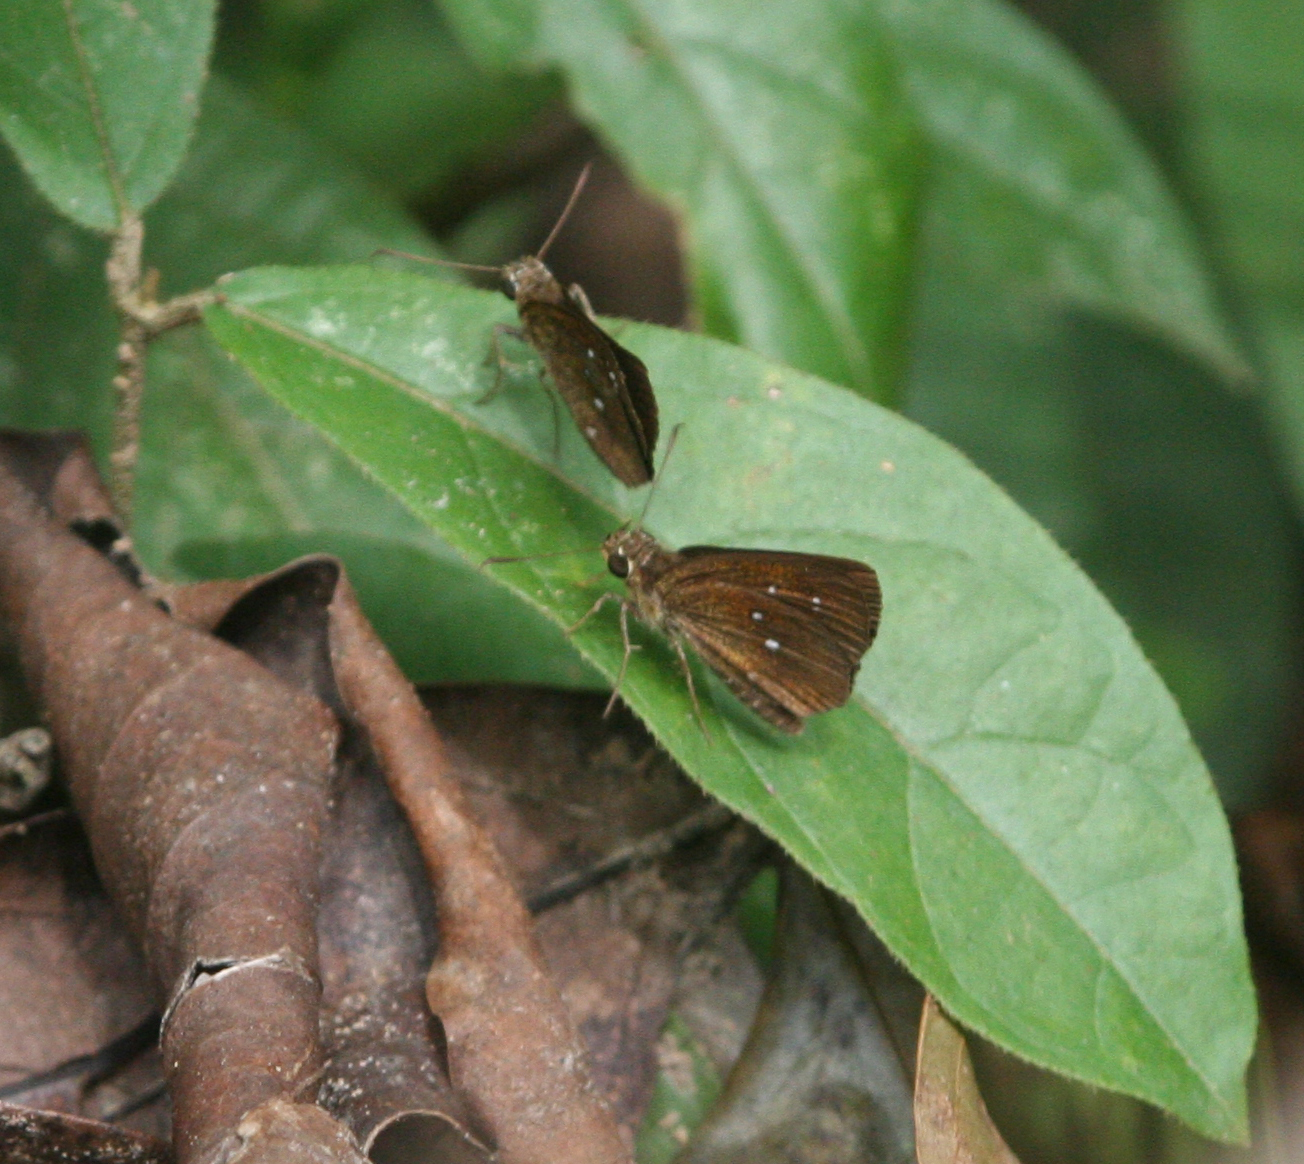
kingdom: Animalia
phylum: Arthropoda
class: Insecta
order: Lepidoptera
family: Hesperiidae
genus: Iambrix
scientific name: Iambrix salsala
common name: Chestnut bob
